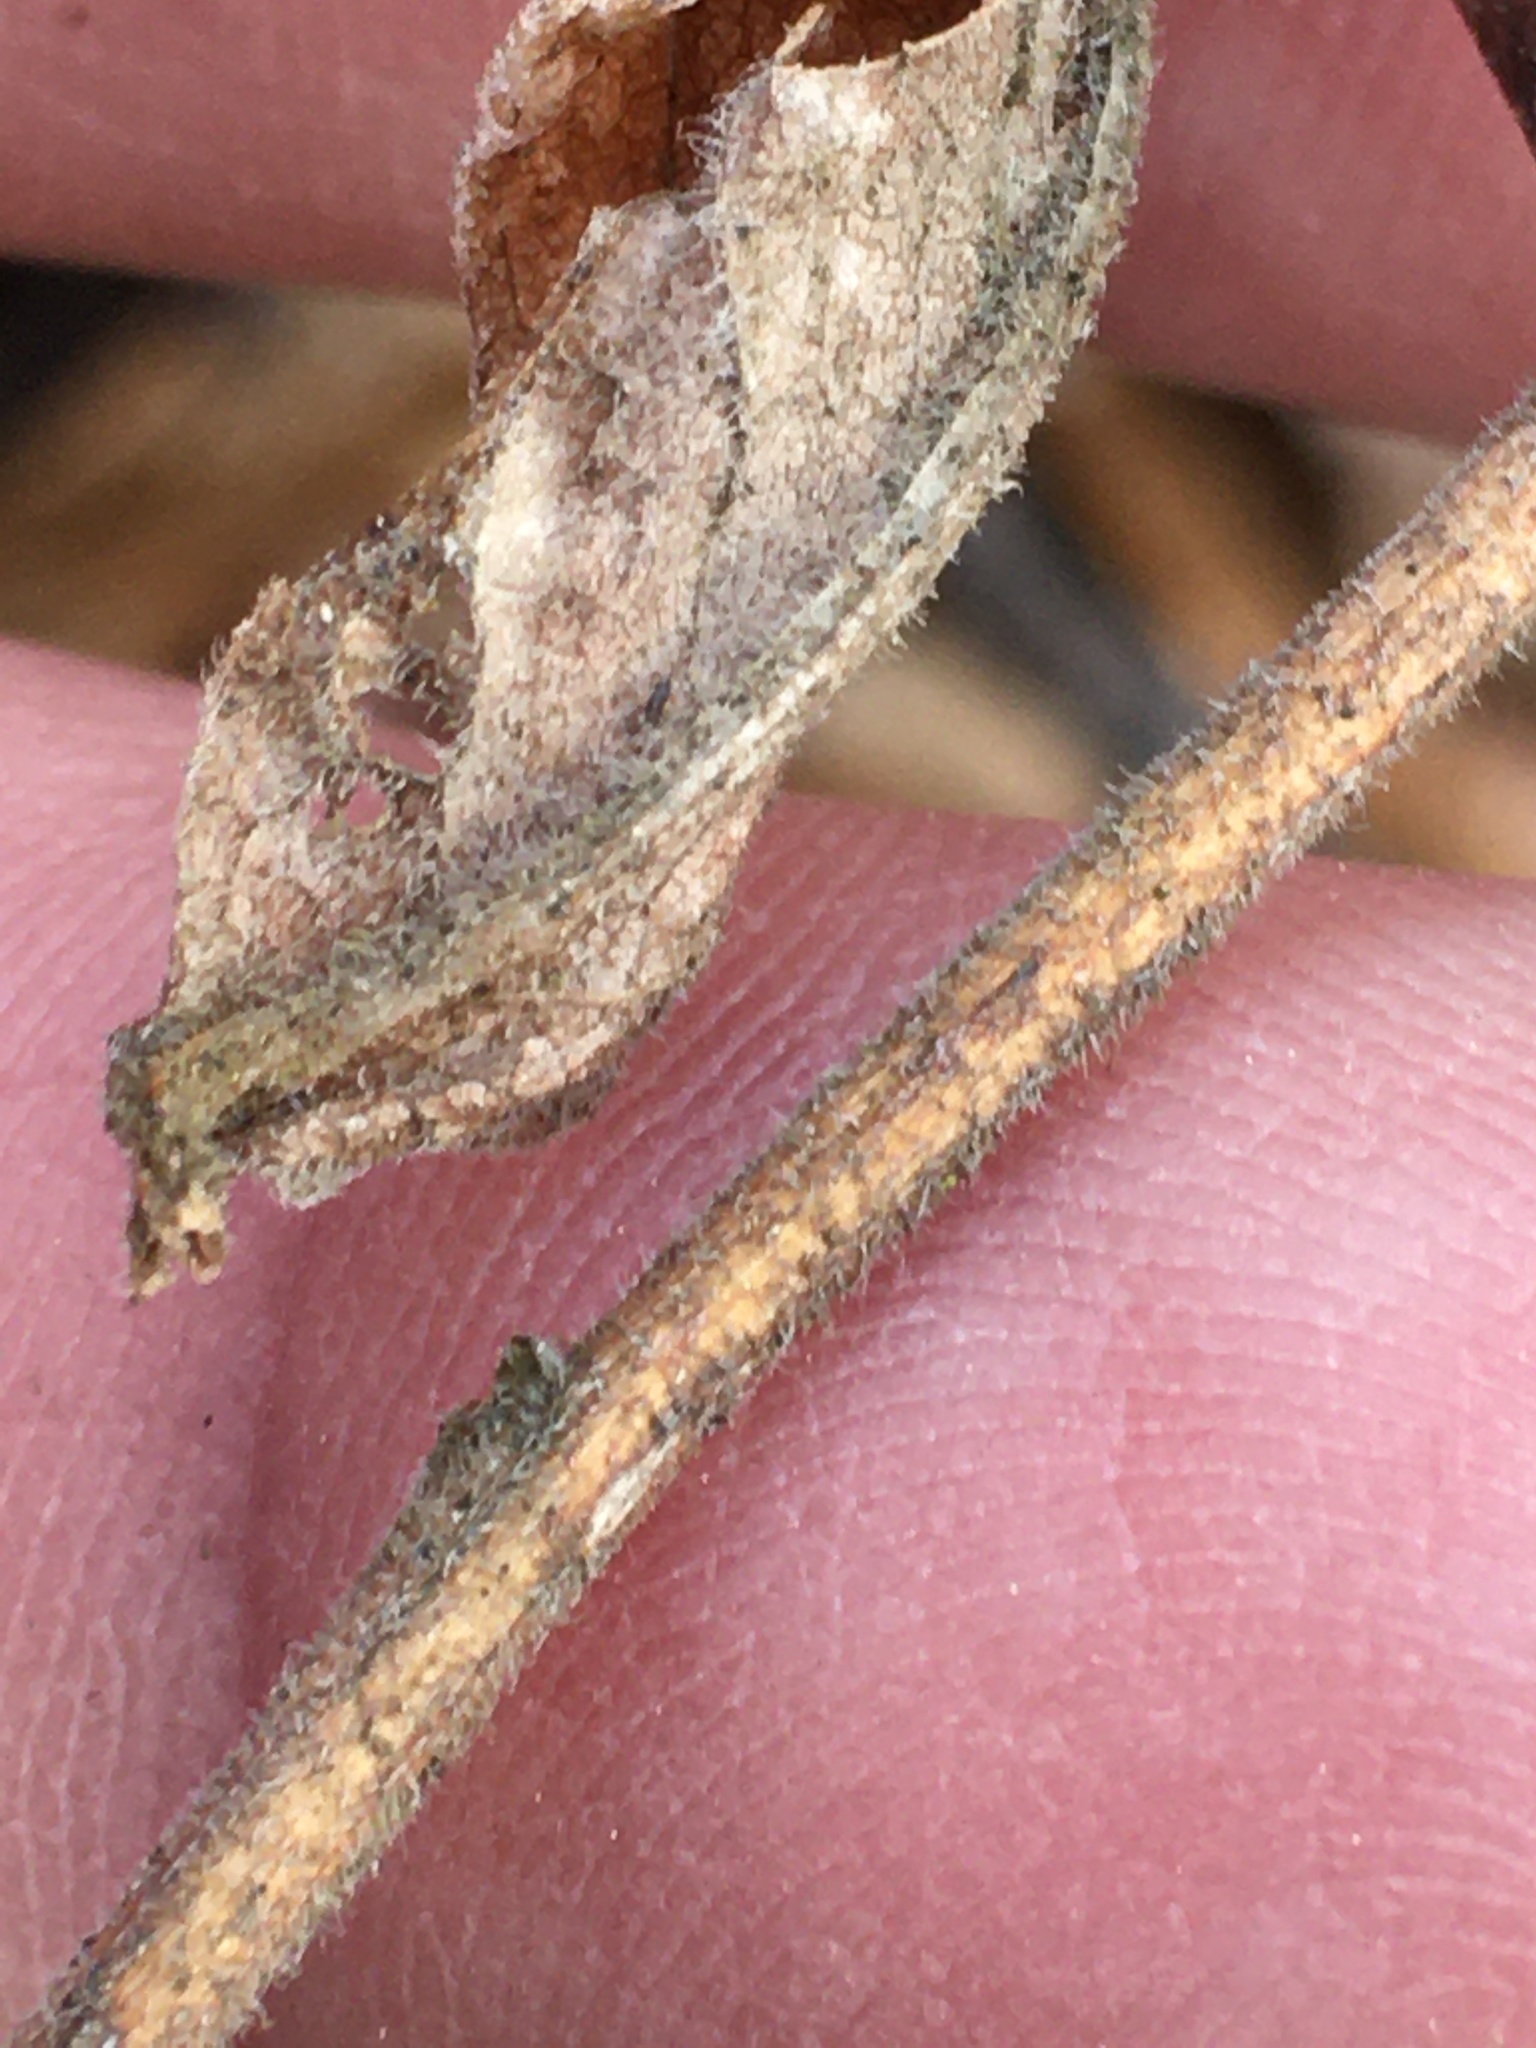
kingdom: Plantae
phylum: Tracheophyta
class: Magnoliopsida
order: Asterales
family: Asteraceae
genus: Solidago
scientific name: Solidago rugosa
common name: Rough-stemmed goldenrod
